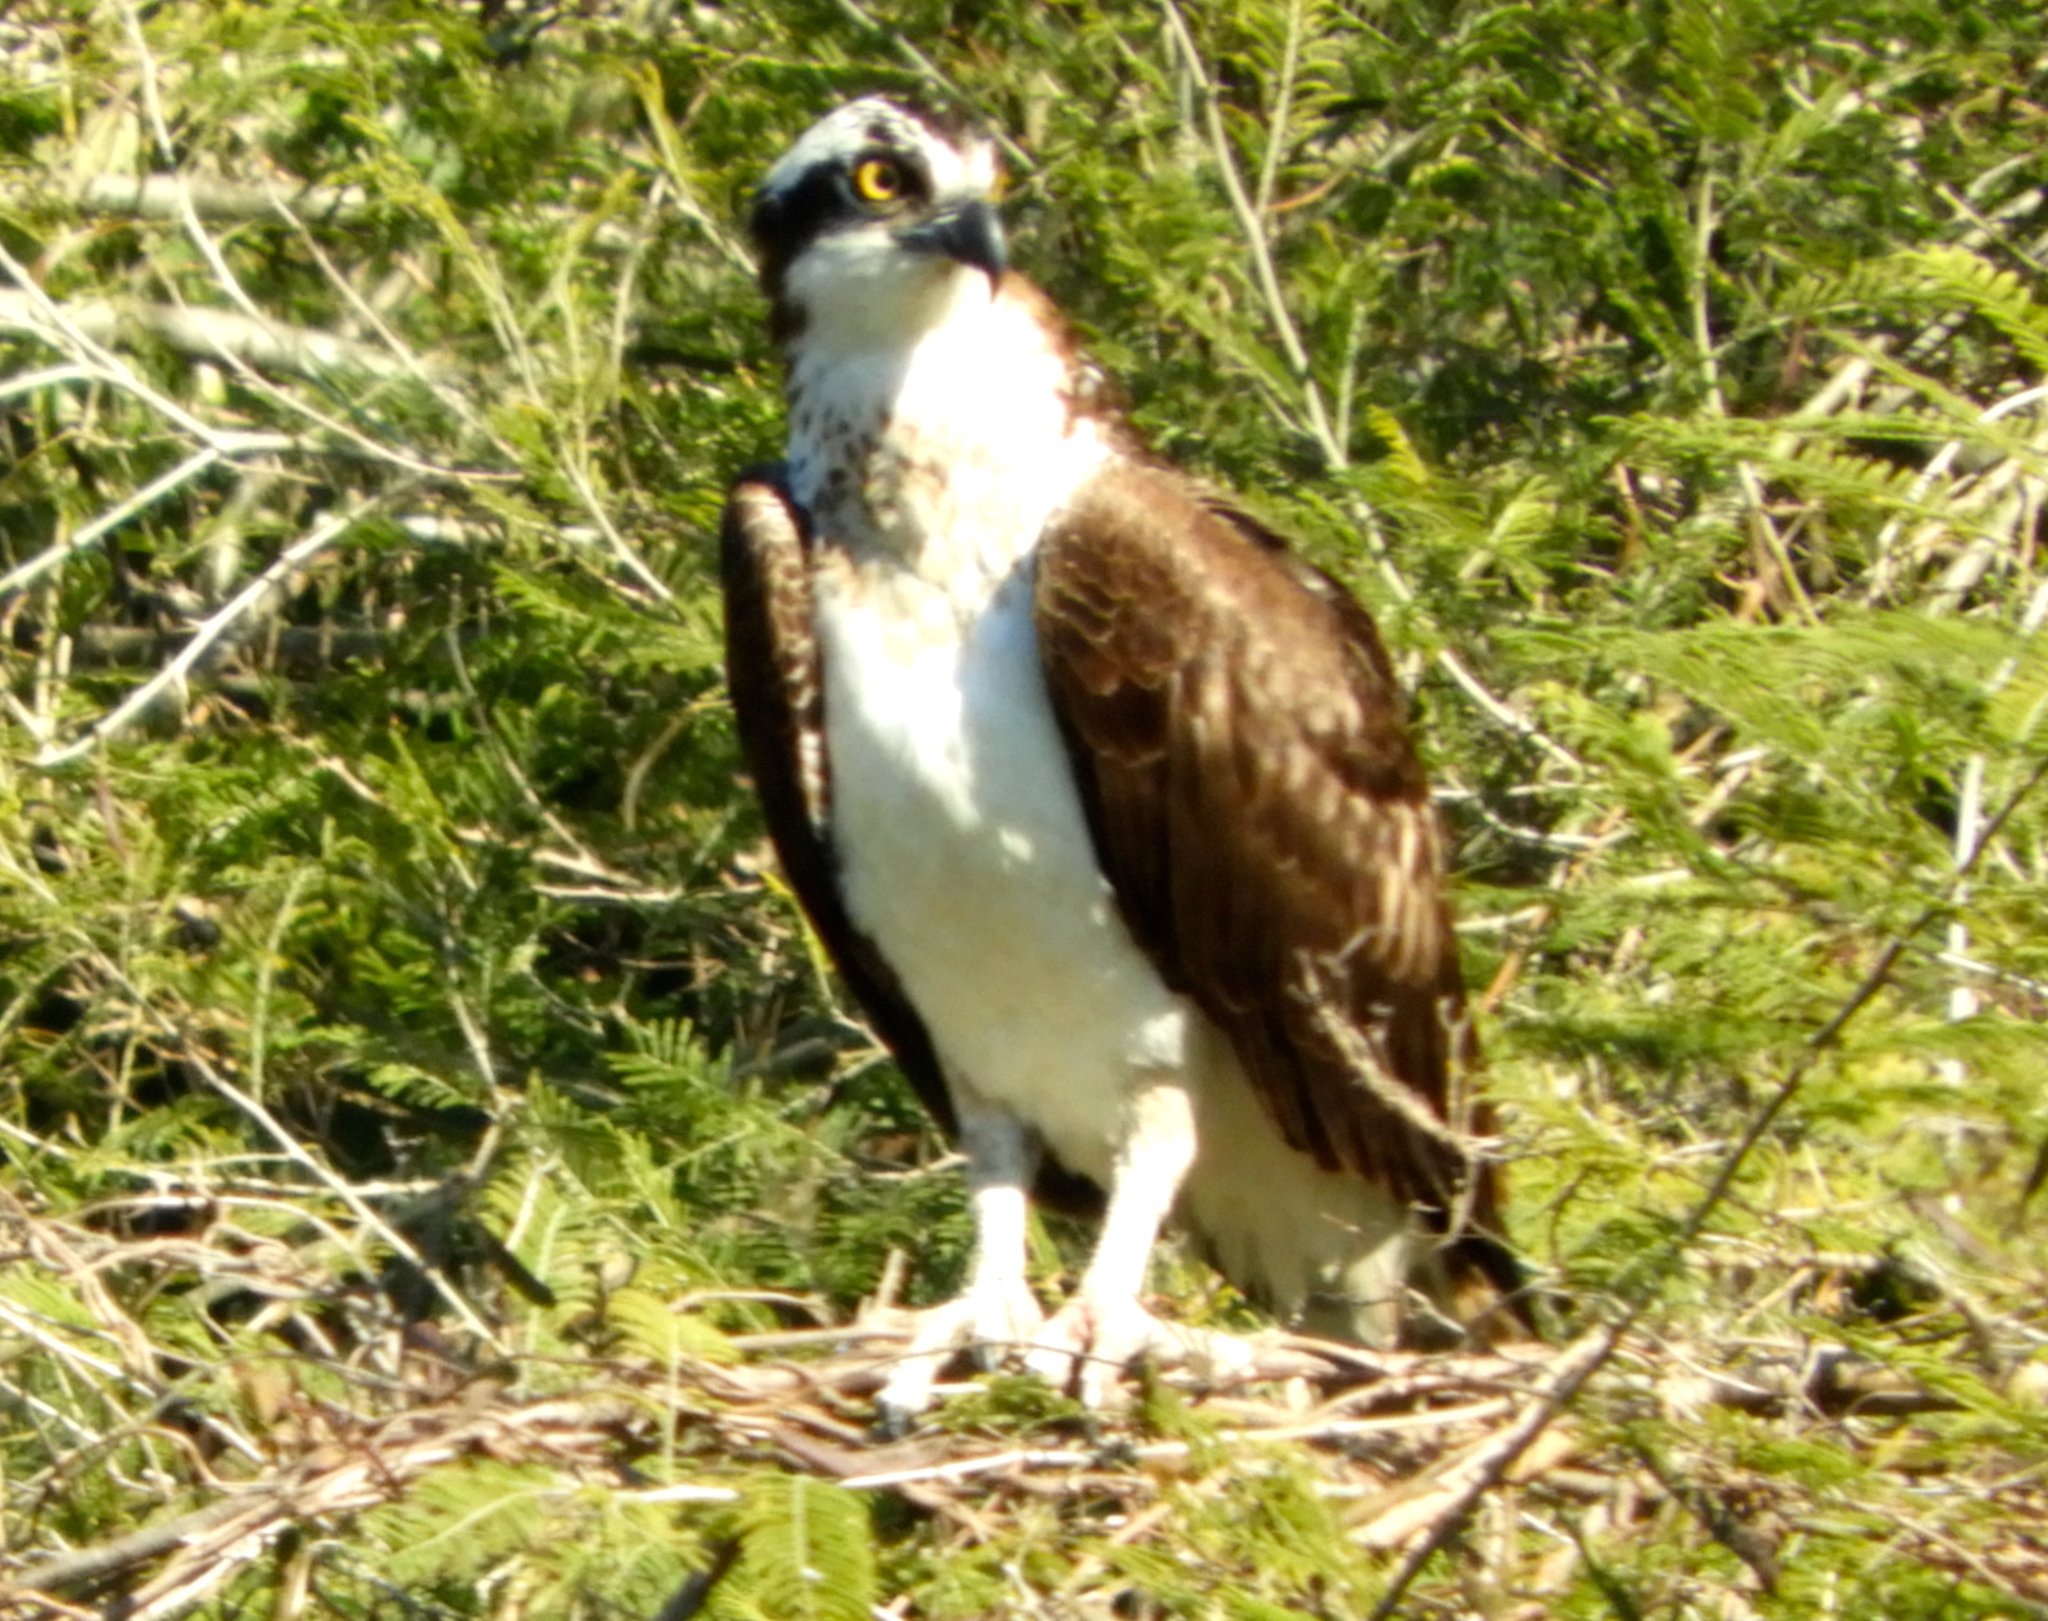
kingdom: Animalia
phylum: Chordata
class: Aves
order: Accipitriformes
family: Pandionidae
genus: Pandion
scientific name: Pandion haliaetus
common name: Osprey
